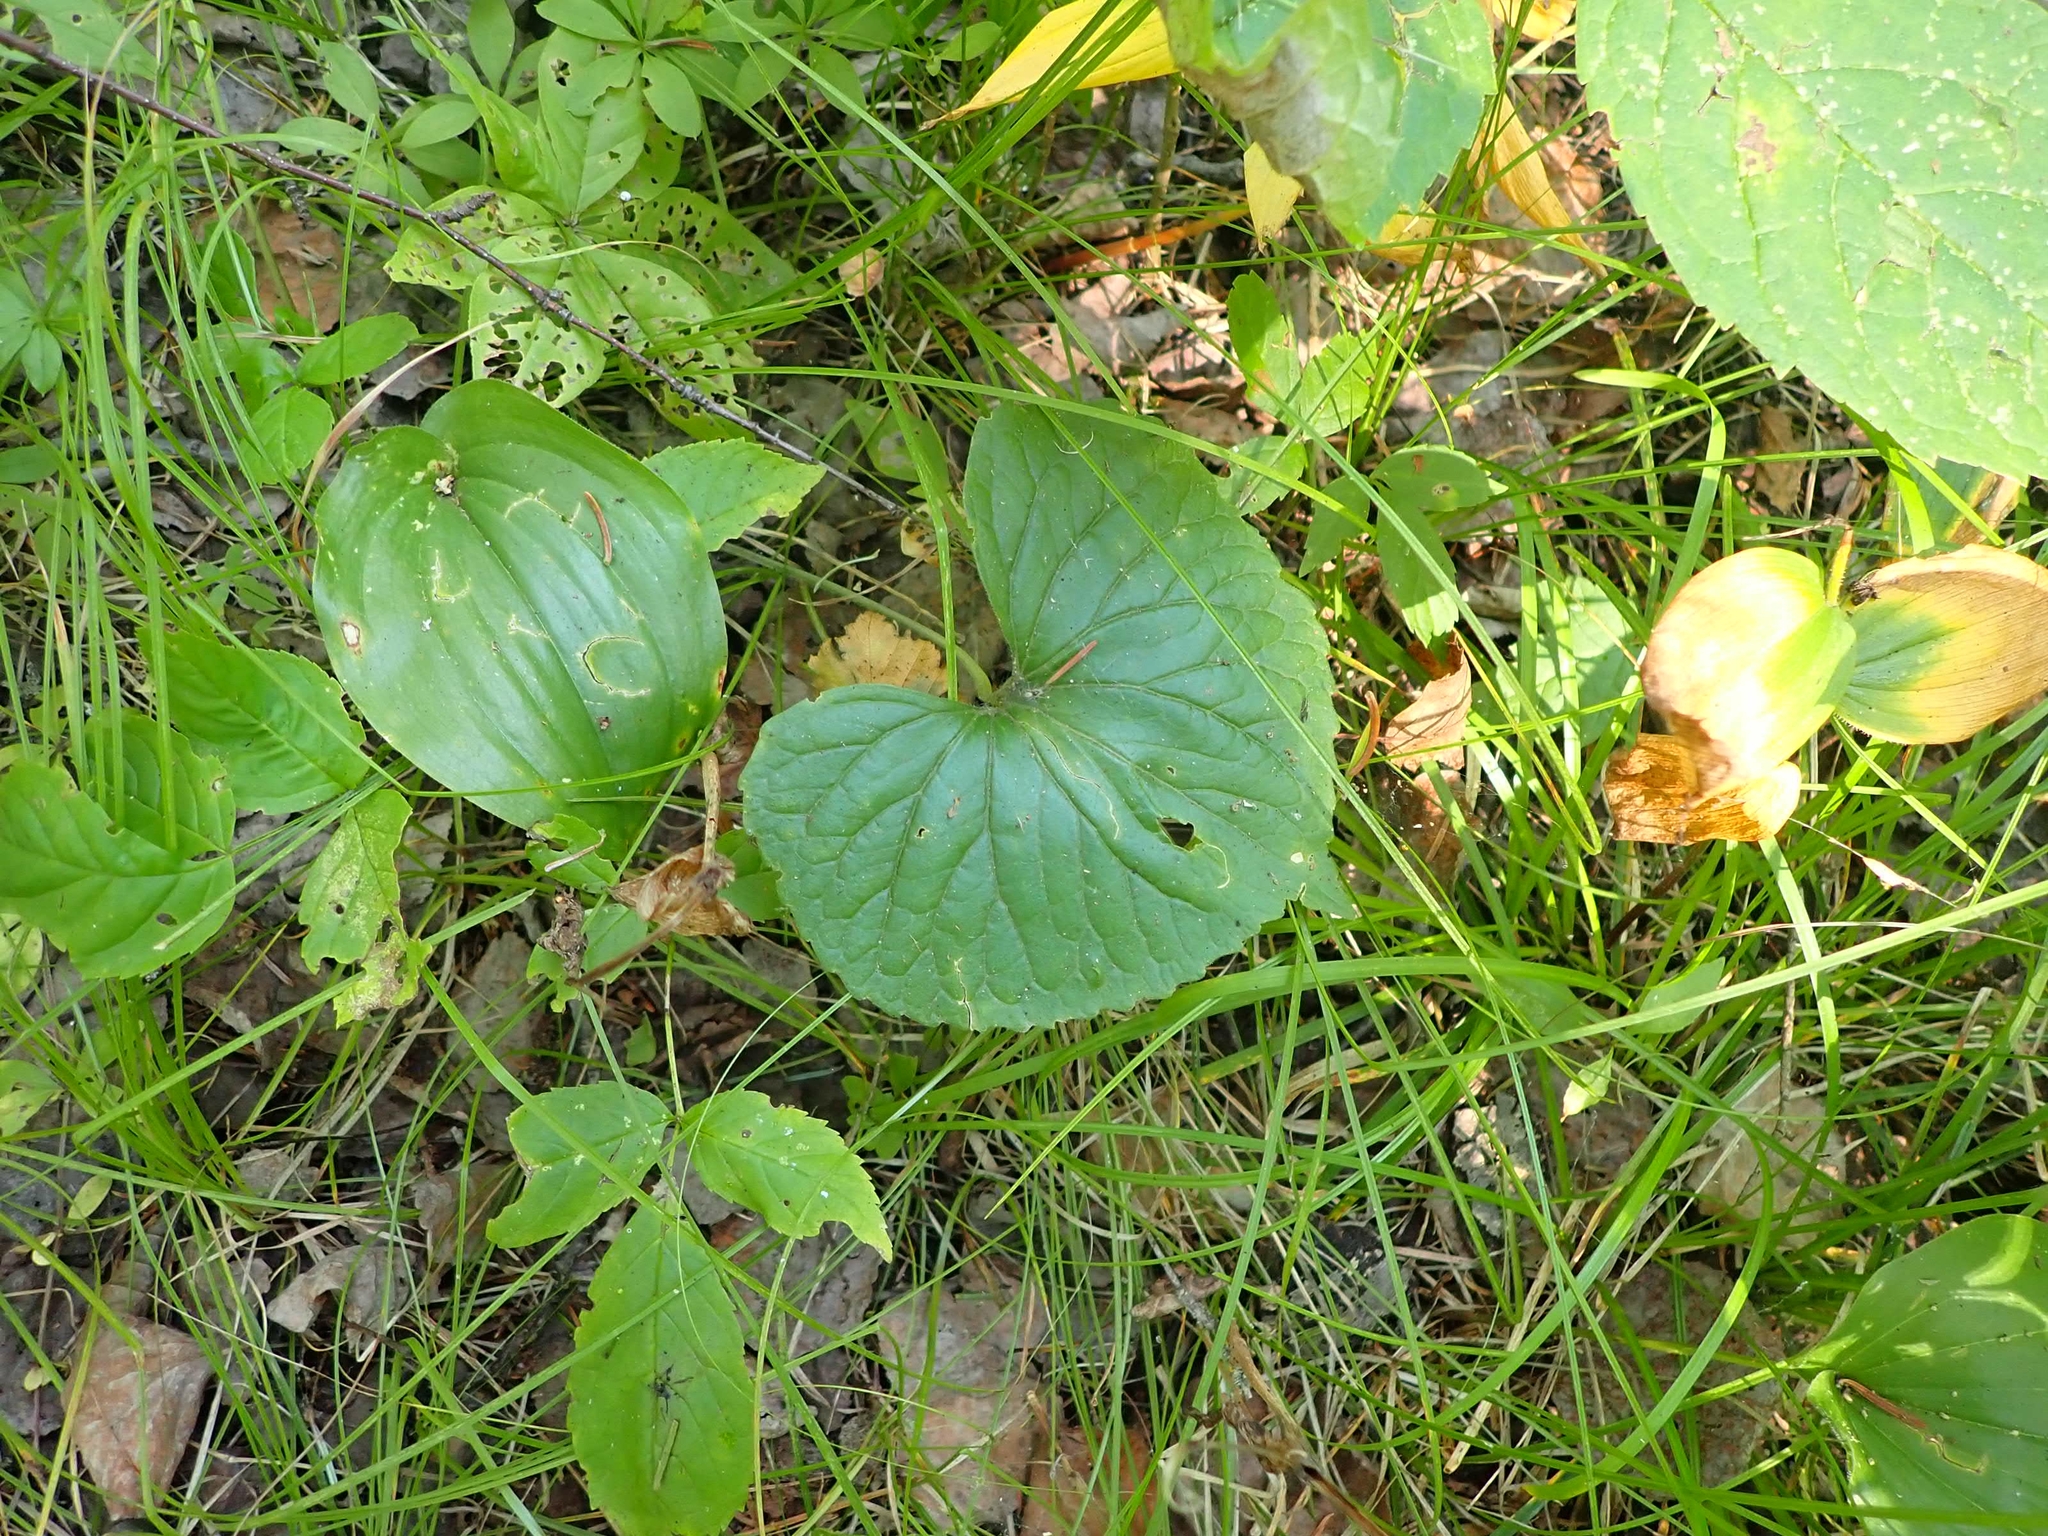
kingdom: Plantae
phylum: Tracheophyta
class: Magnoliopsida
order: Malpighiales
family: Violaceae
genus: Viola
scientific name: Viola renifolia
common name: Kidney-leaf violet
